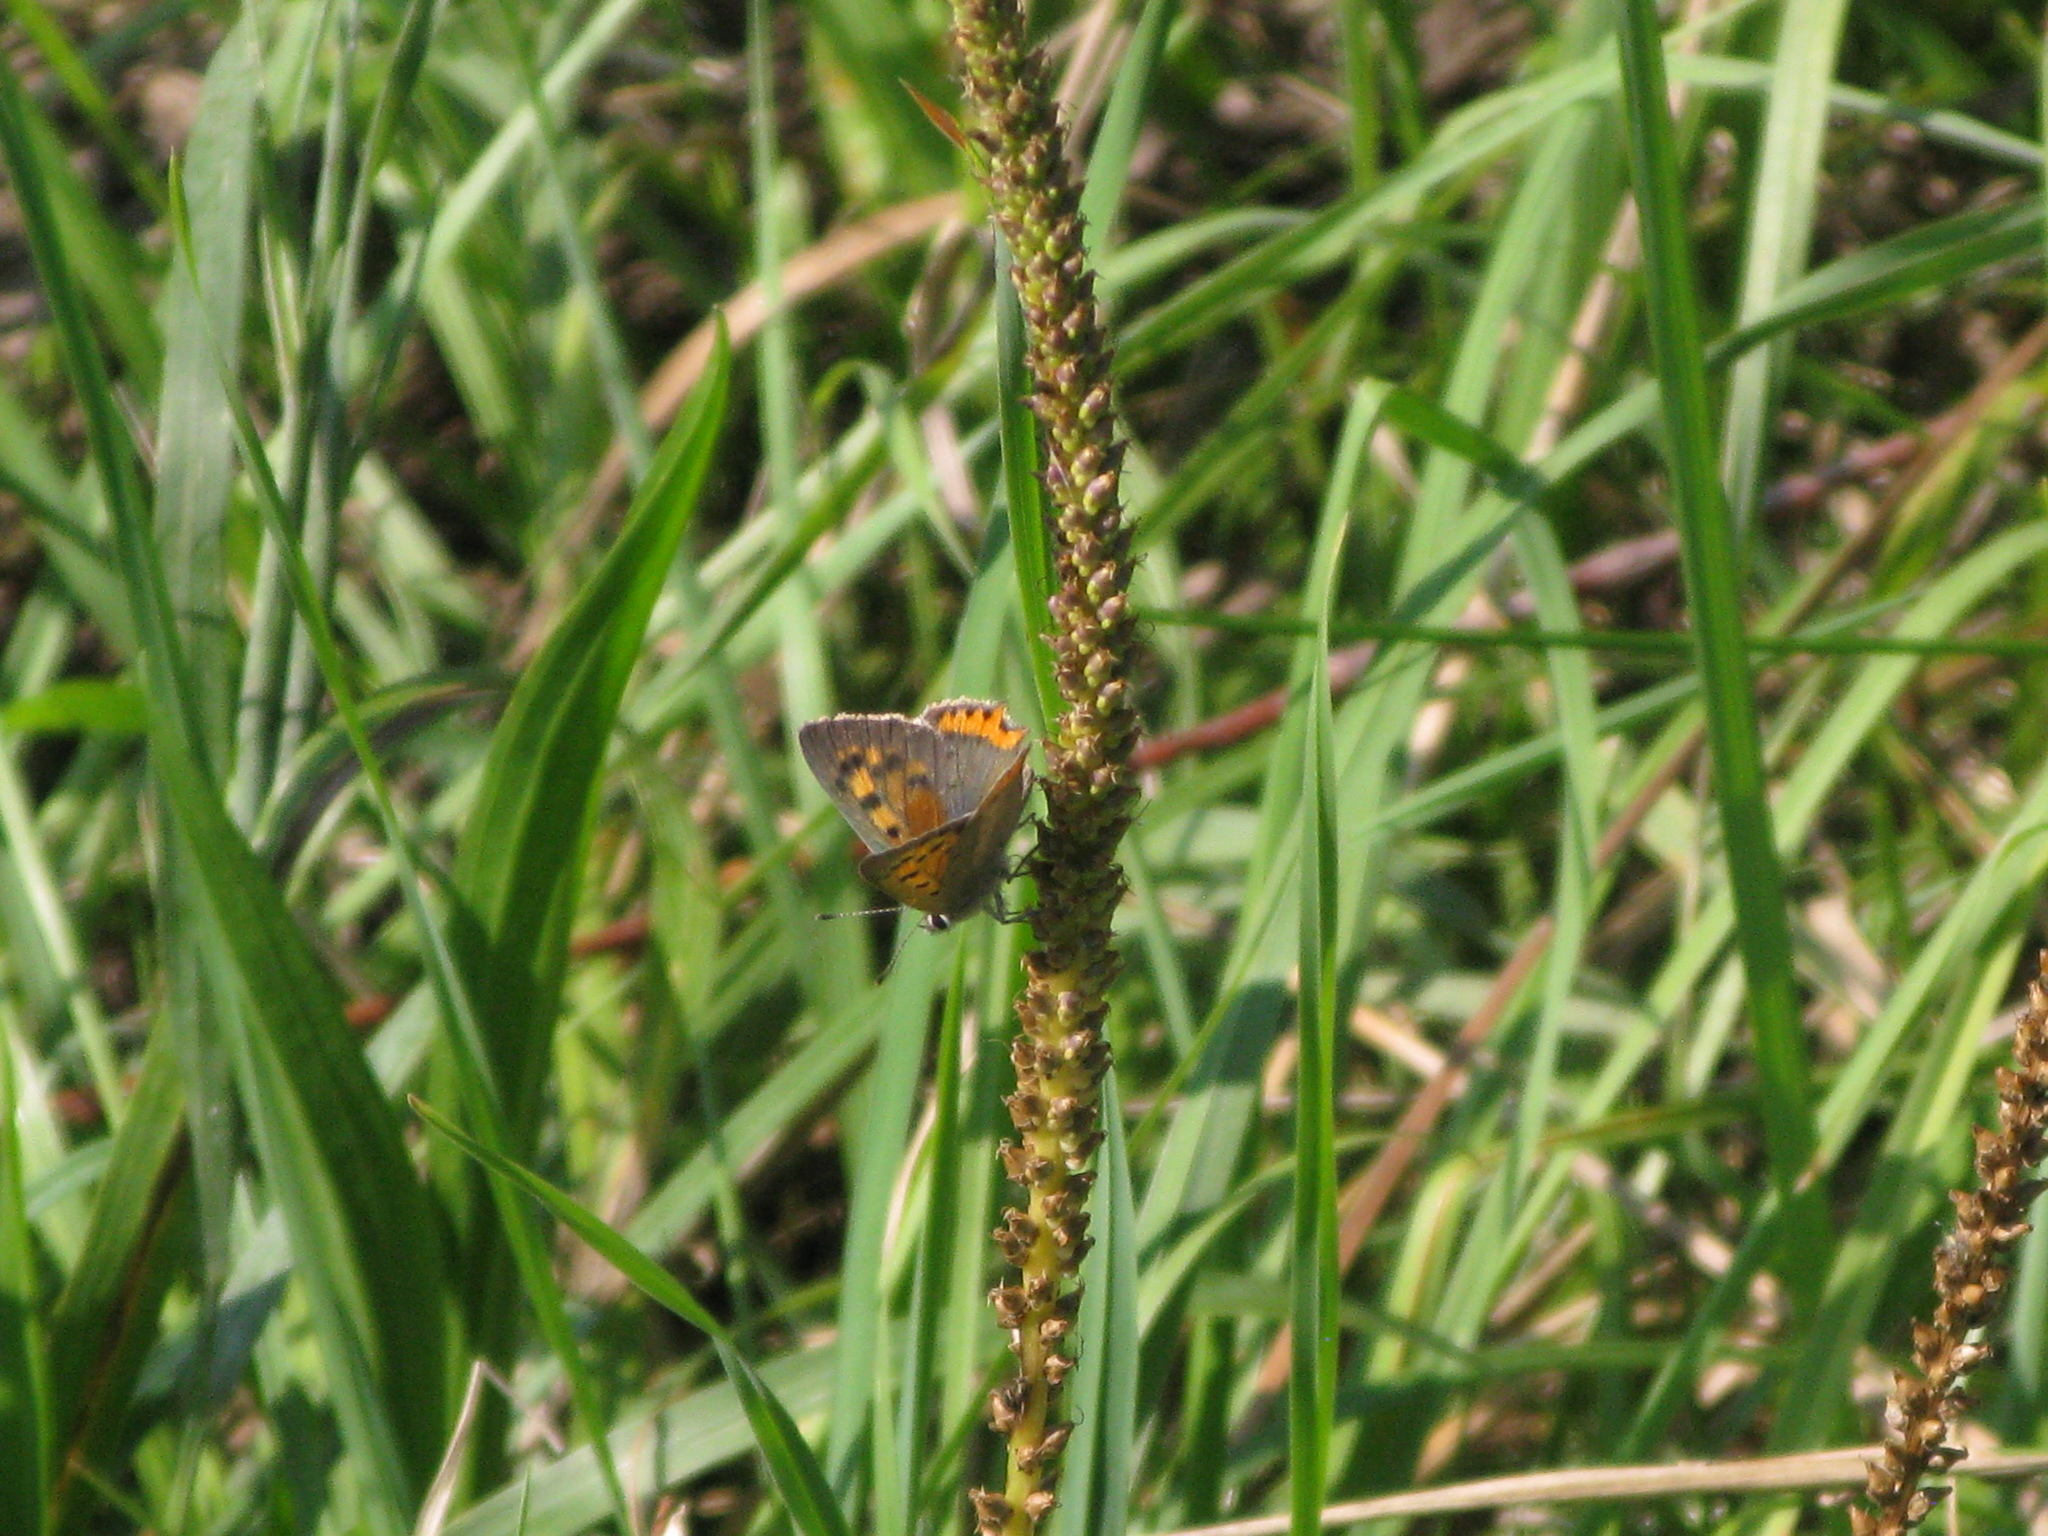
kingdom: Animalia
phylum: Arthropoda
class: Insecta
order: Lepidoptera
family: Lycaenidae
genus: Lycaena
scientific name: Lycaena phlaeas
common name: Small copper
